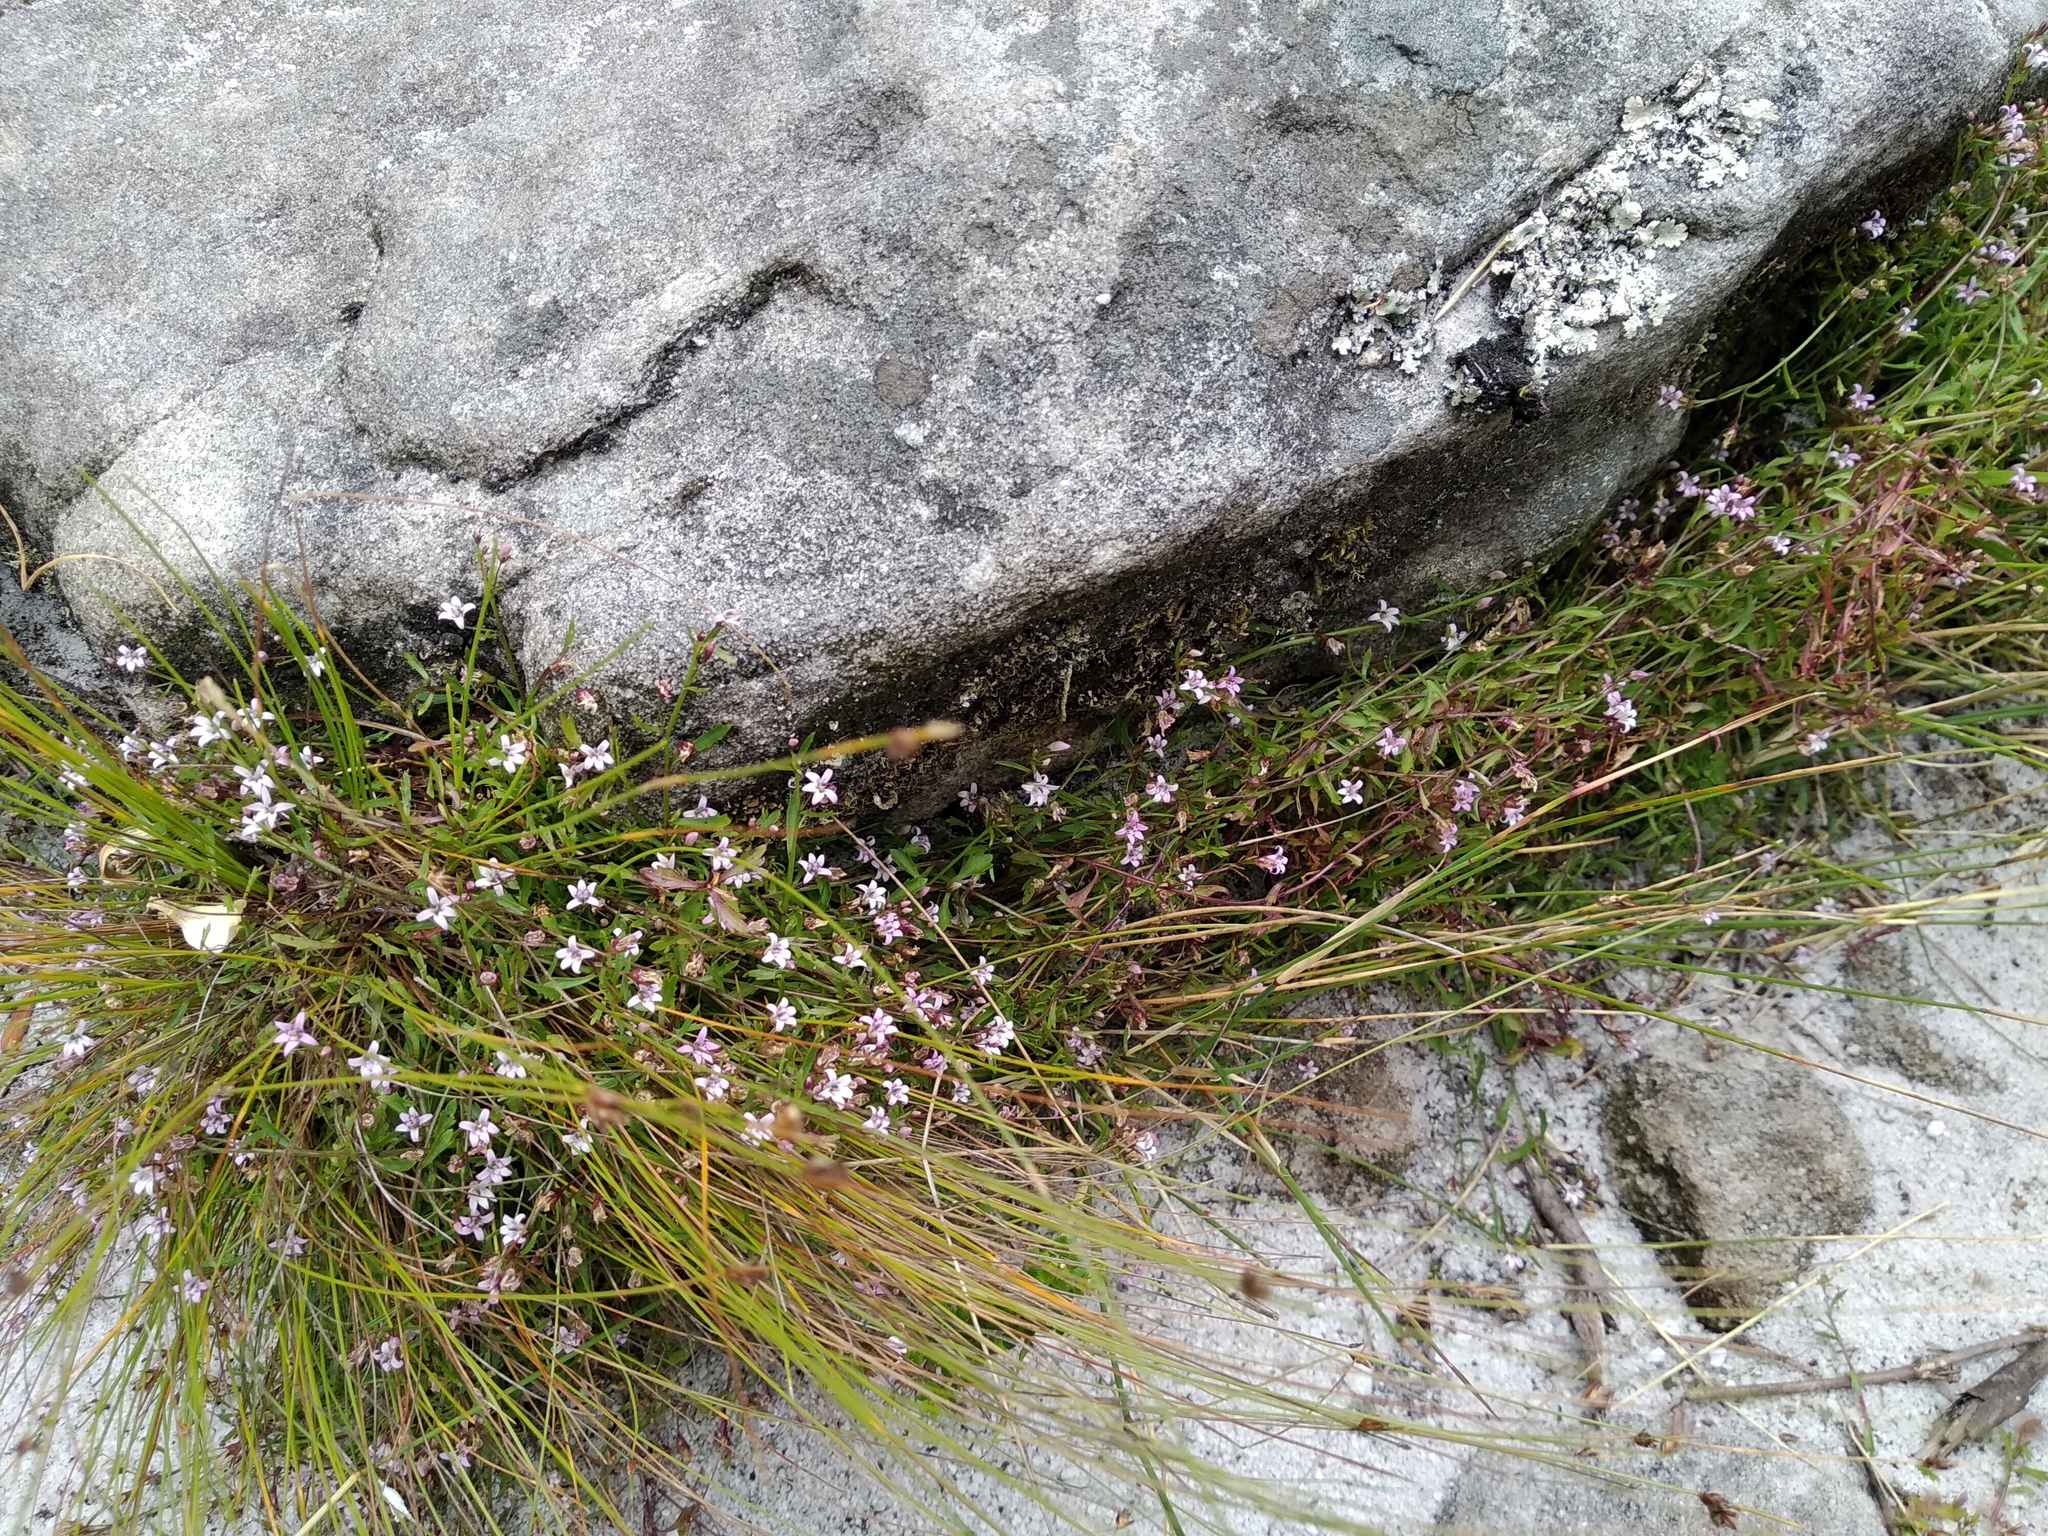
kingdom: Plantae
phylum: Tracheophyta
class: Magnoliopsida
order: Asterales
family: Campanulaceae
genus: Lobelia
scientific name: Lobelia eckloniana
